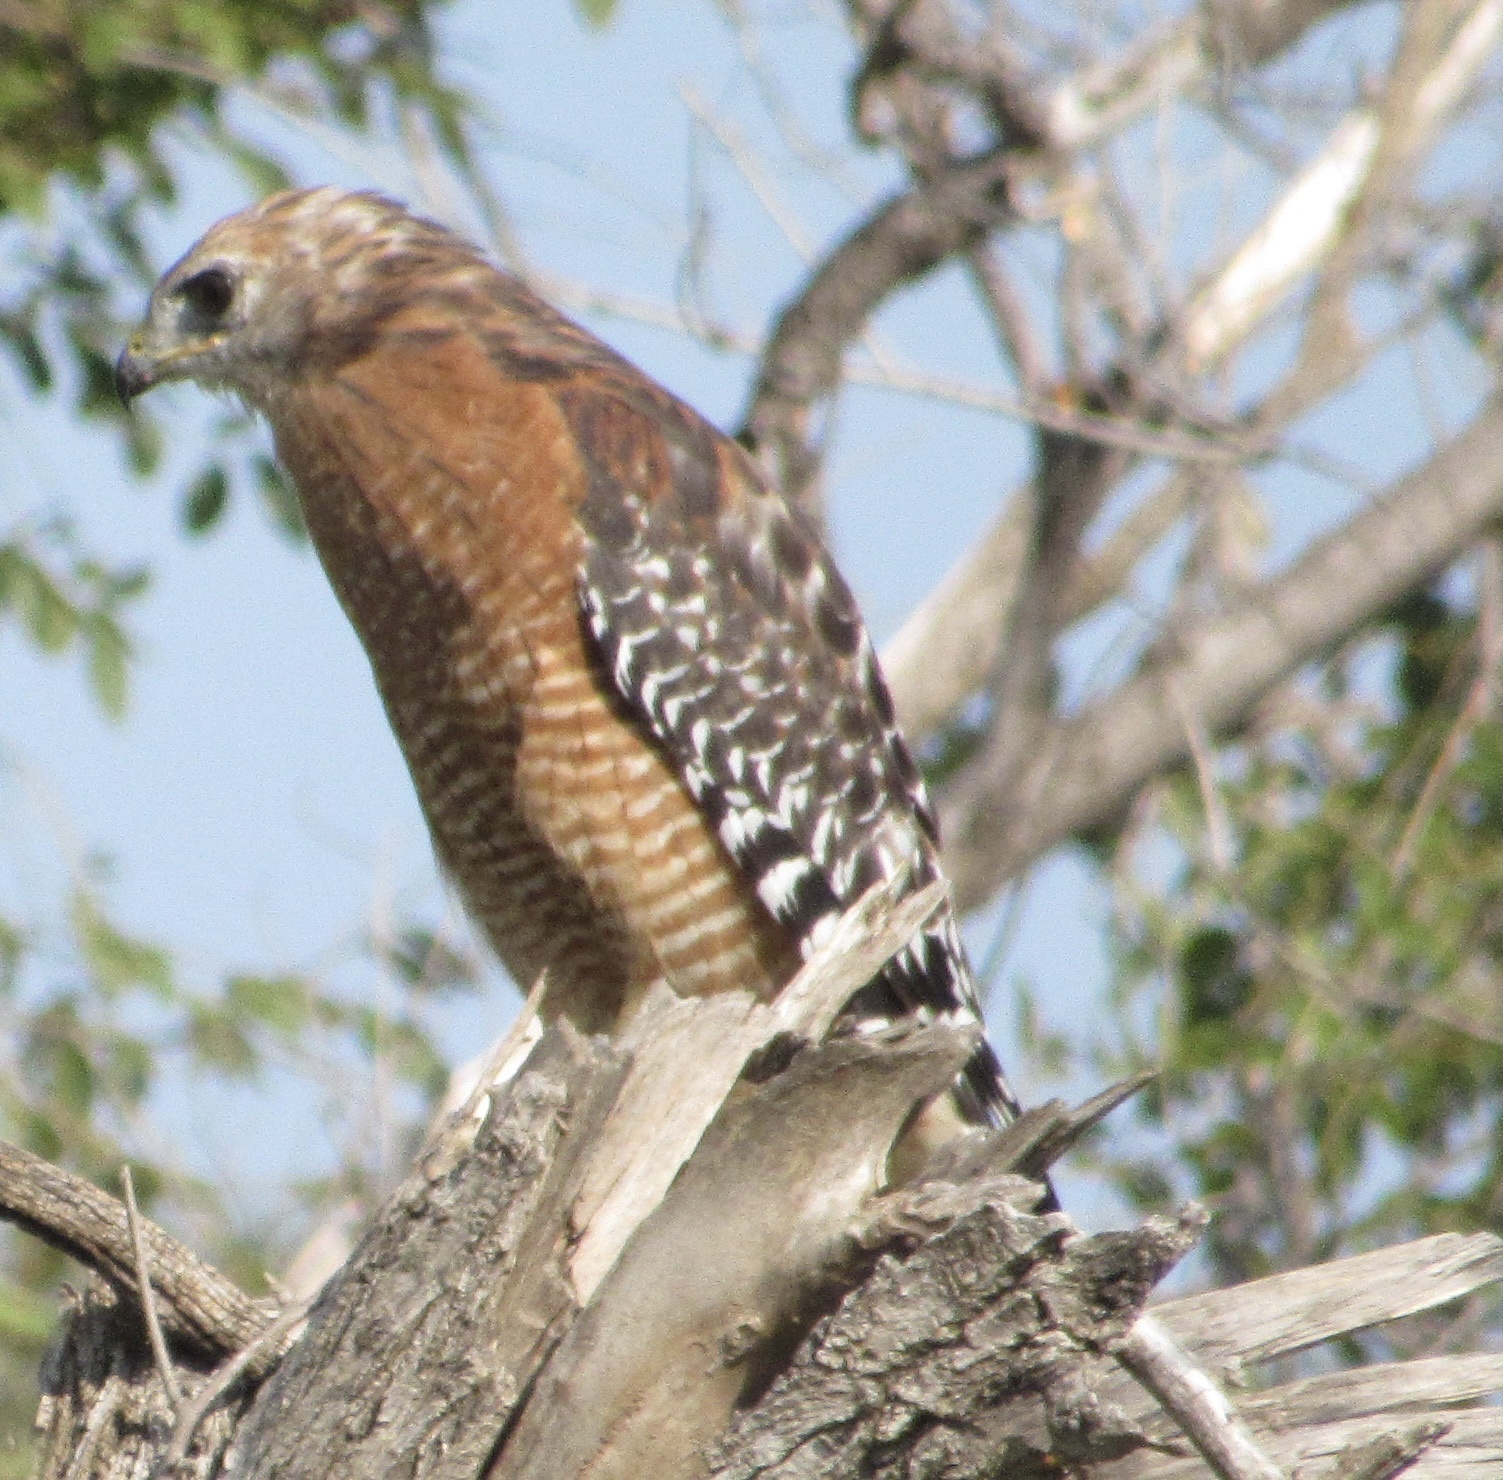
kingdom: Animalia
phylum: Chordata
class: Aves
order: Accipitriformes
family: Accipitridae
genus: Buteo
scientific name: Buteo lineatus
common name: Red-shouldered hawk
